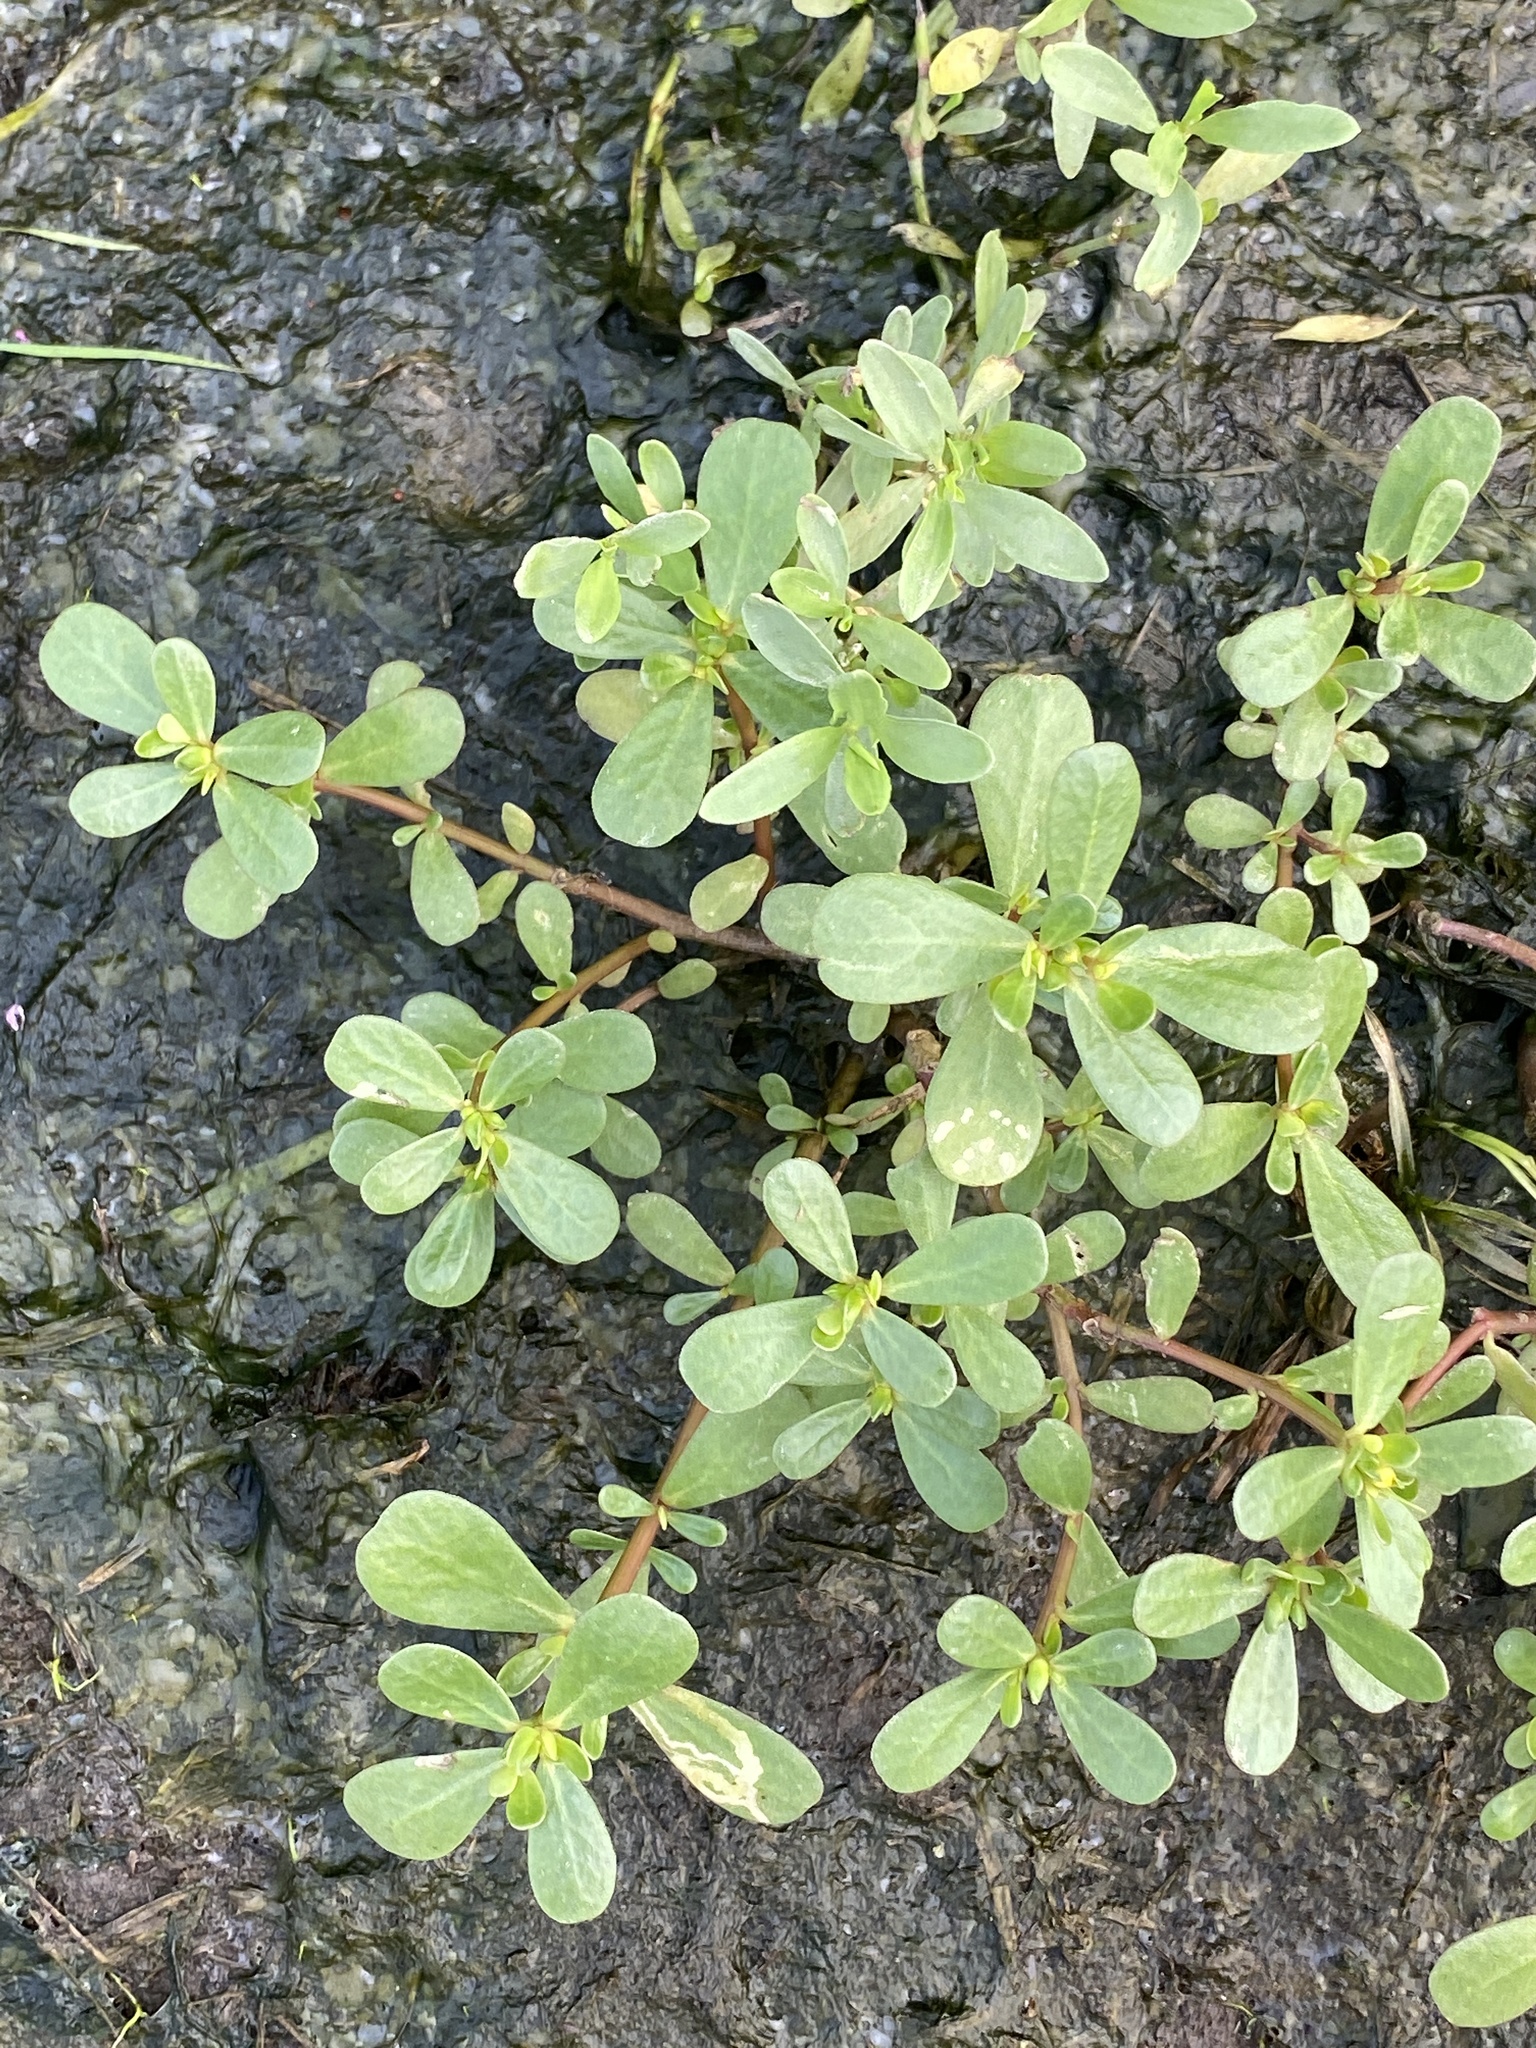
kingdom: Plantae
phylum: Tracheophyta
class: Magnoliopsida
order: Caryophyllales
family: Portulacaceae
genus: Portulaca
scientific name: Portulaca oleracea
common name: Common purslane
